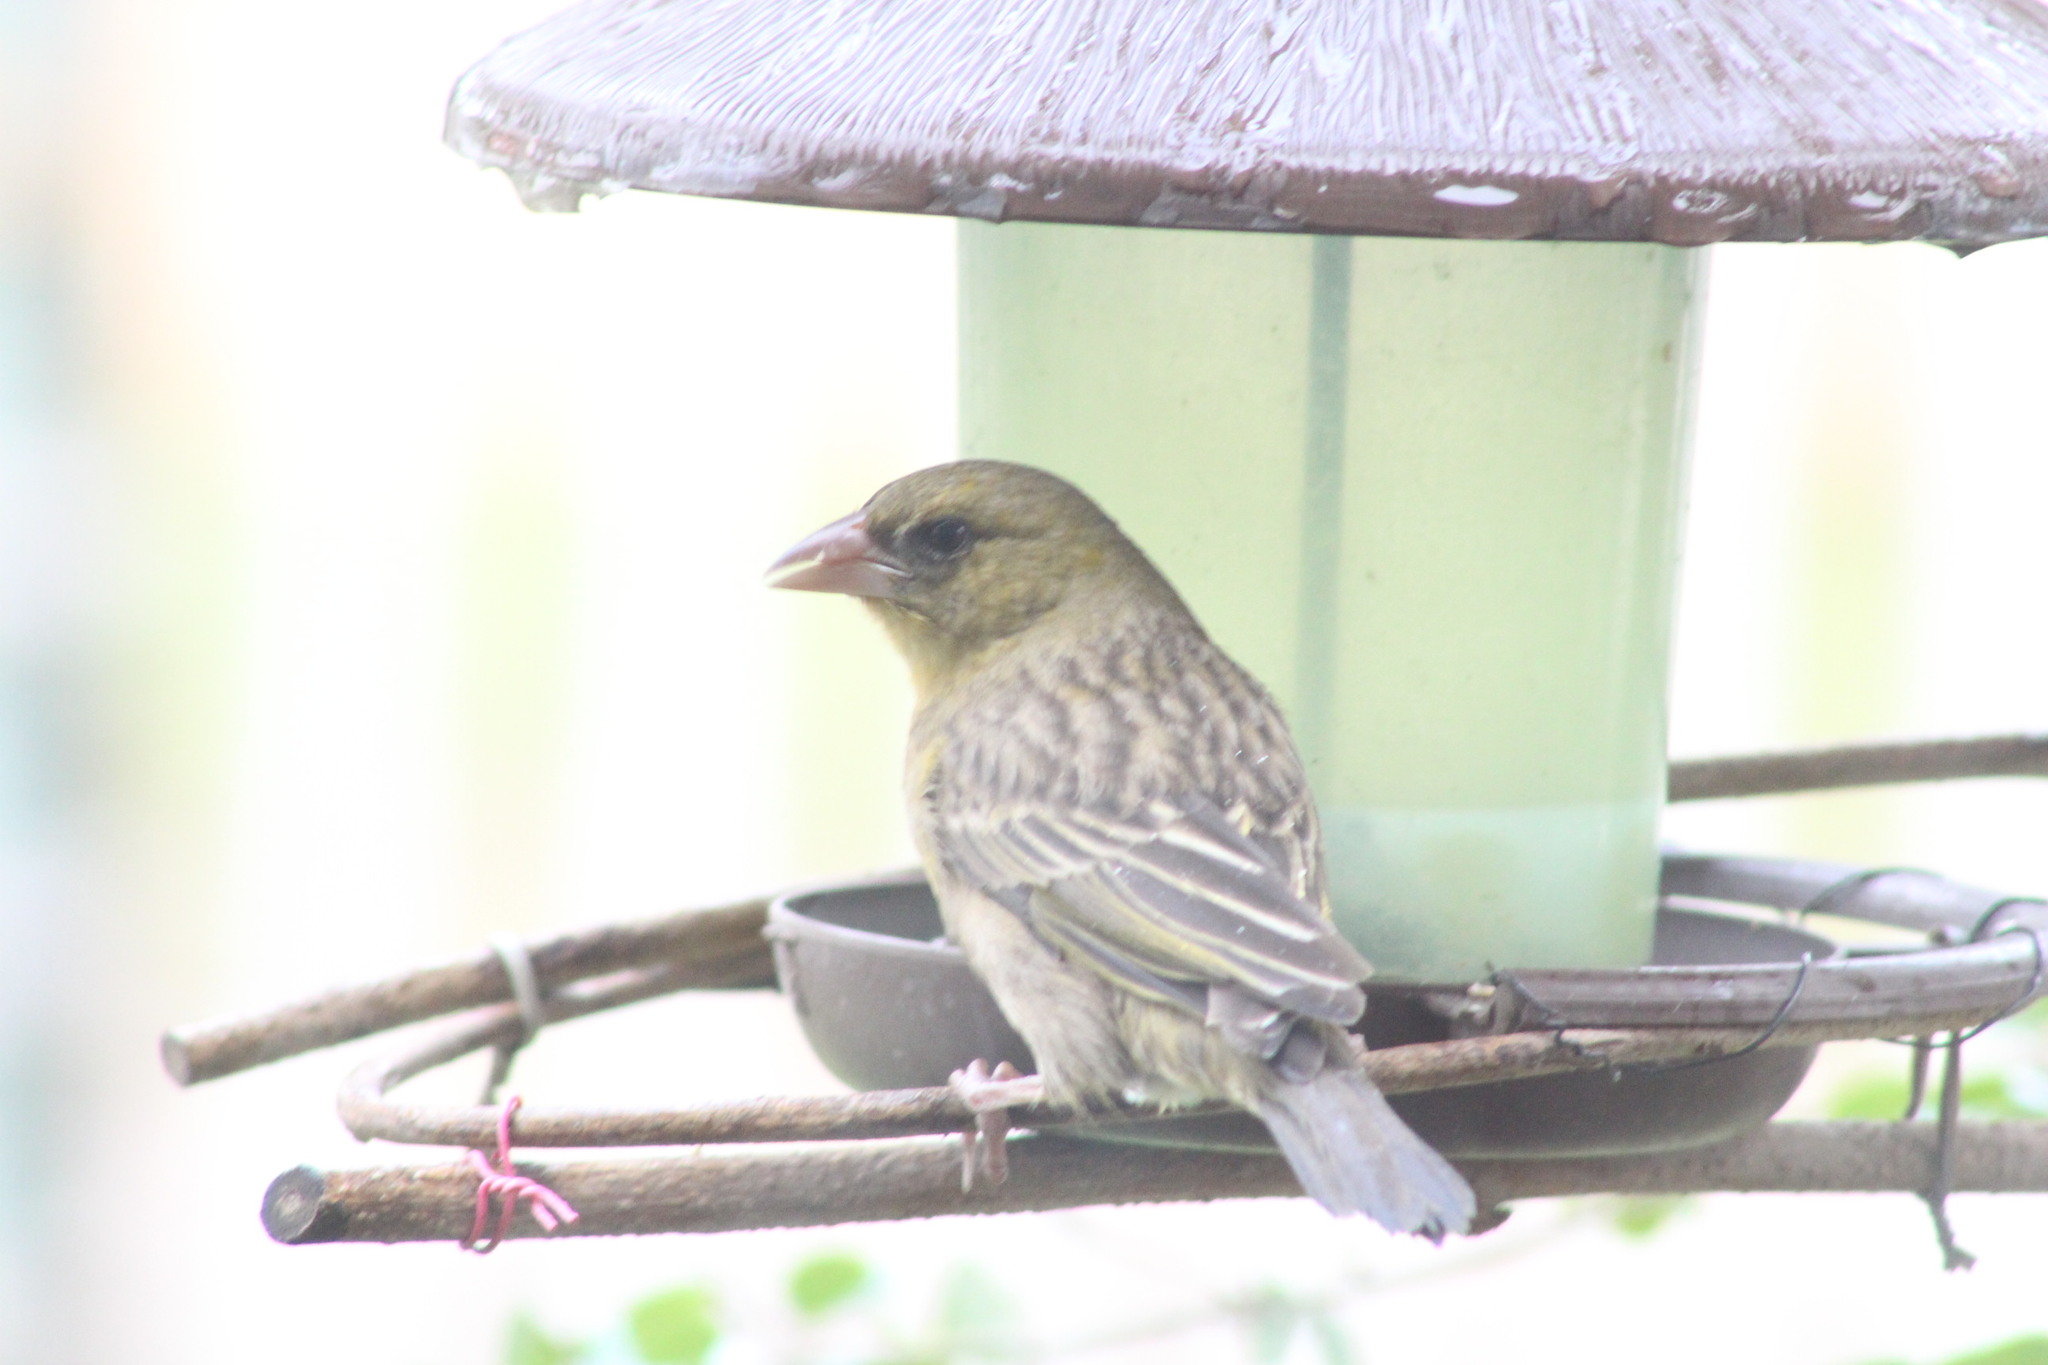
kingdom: Animalia
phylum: Chordata
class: Aves
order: Passeriformes
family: Ploceidae
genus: Ploceus
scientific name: Ploceus velatus
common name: Southern masked weaver
